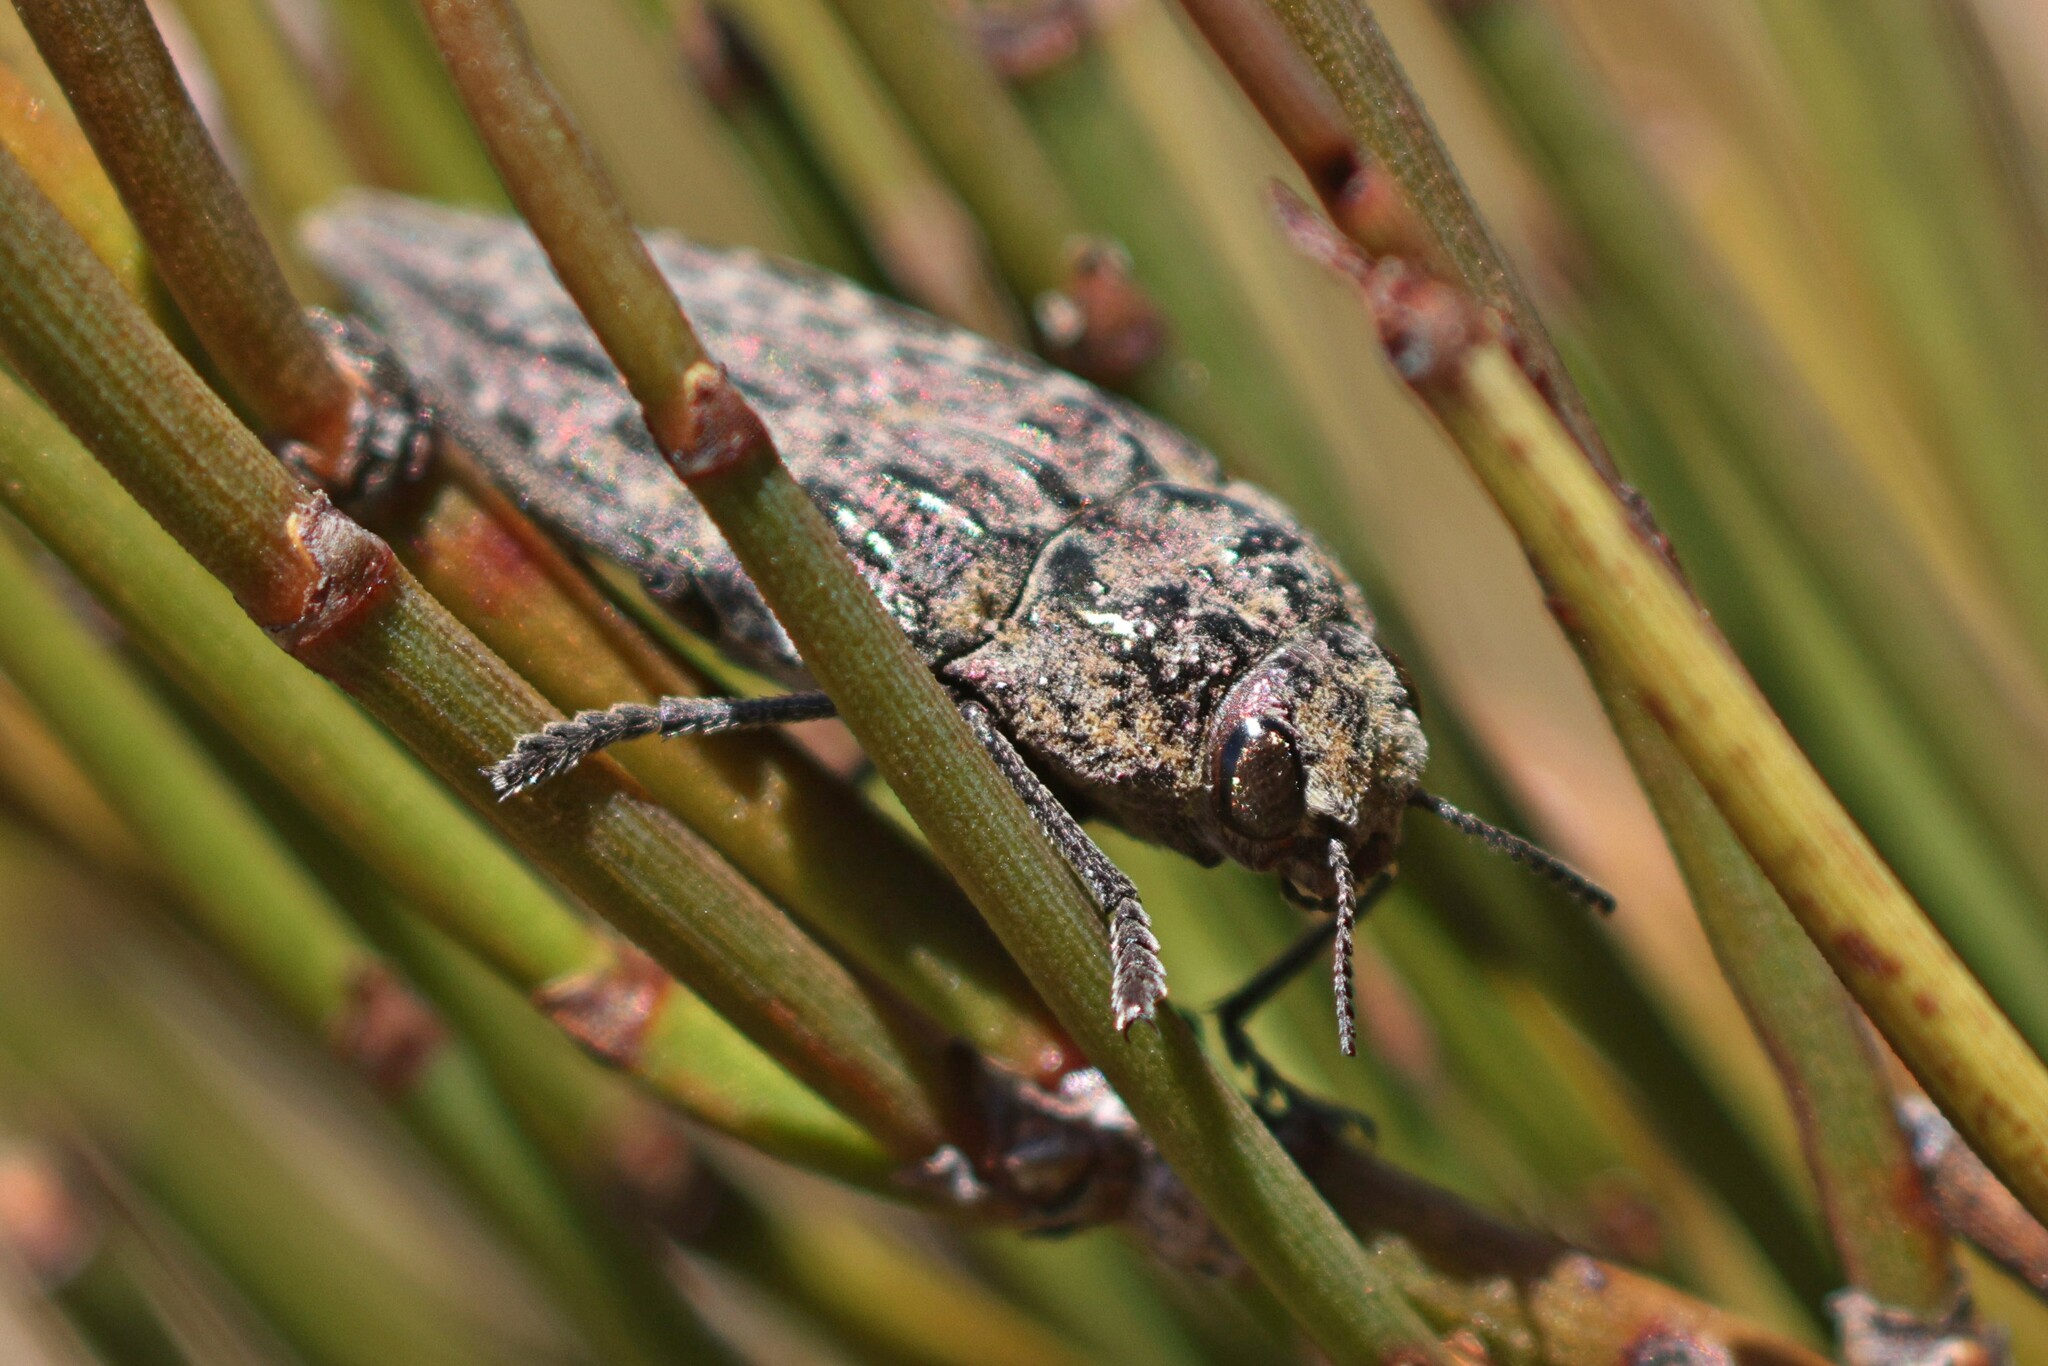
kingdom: Animalia
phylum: Arthropoda
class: Insecta
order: Coleoptera
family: Buprestidae
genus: Ectinogonia
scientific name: Ectinogonia speciosa
